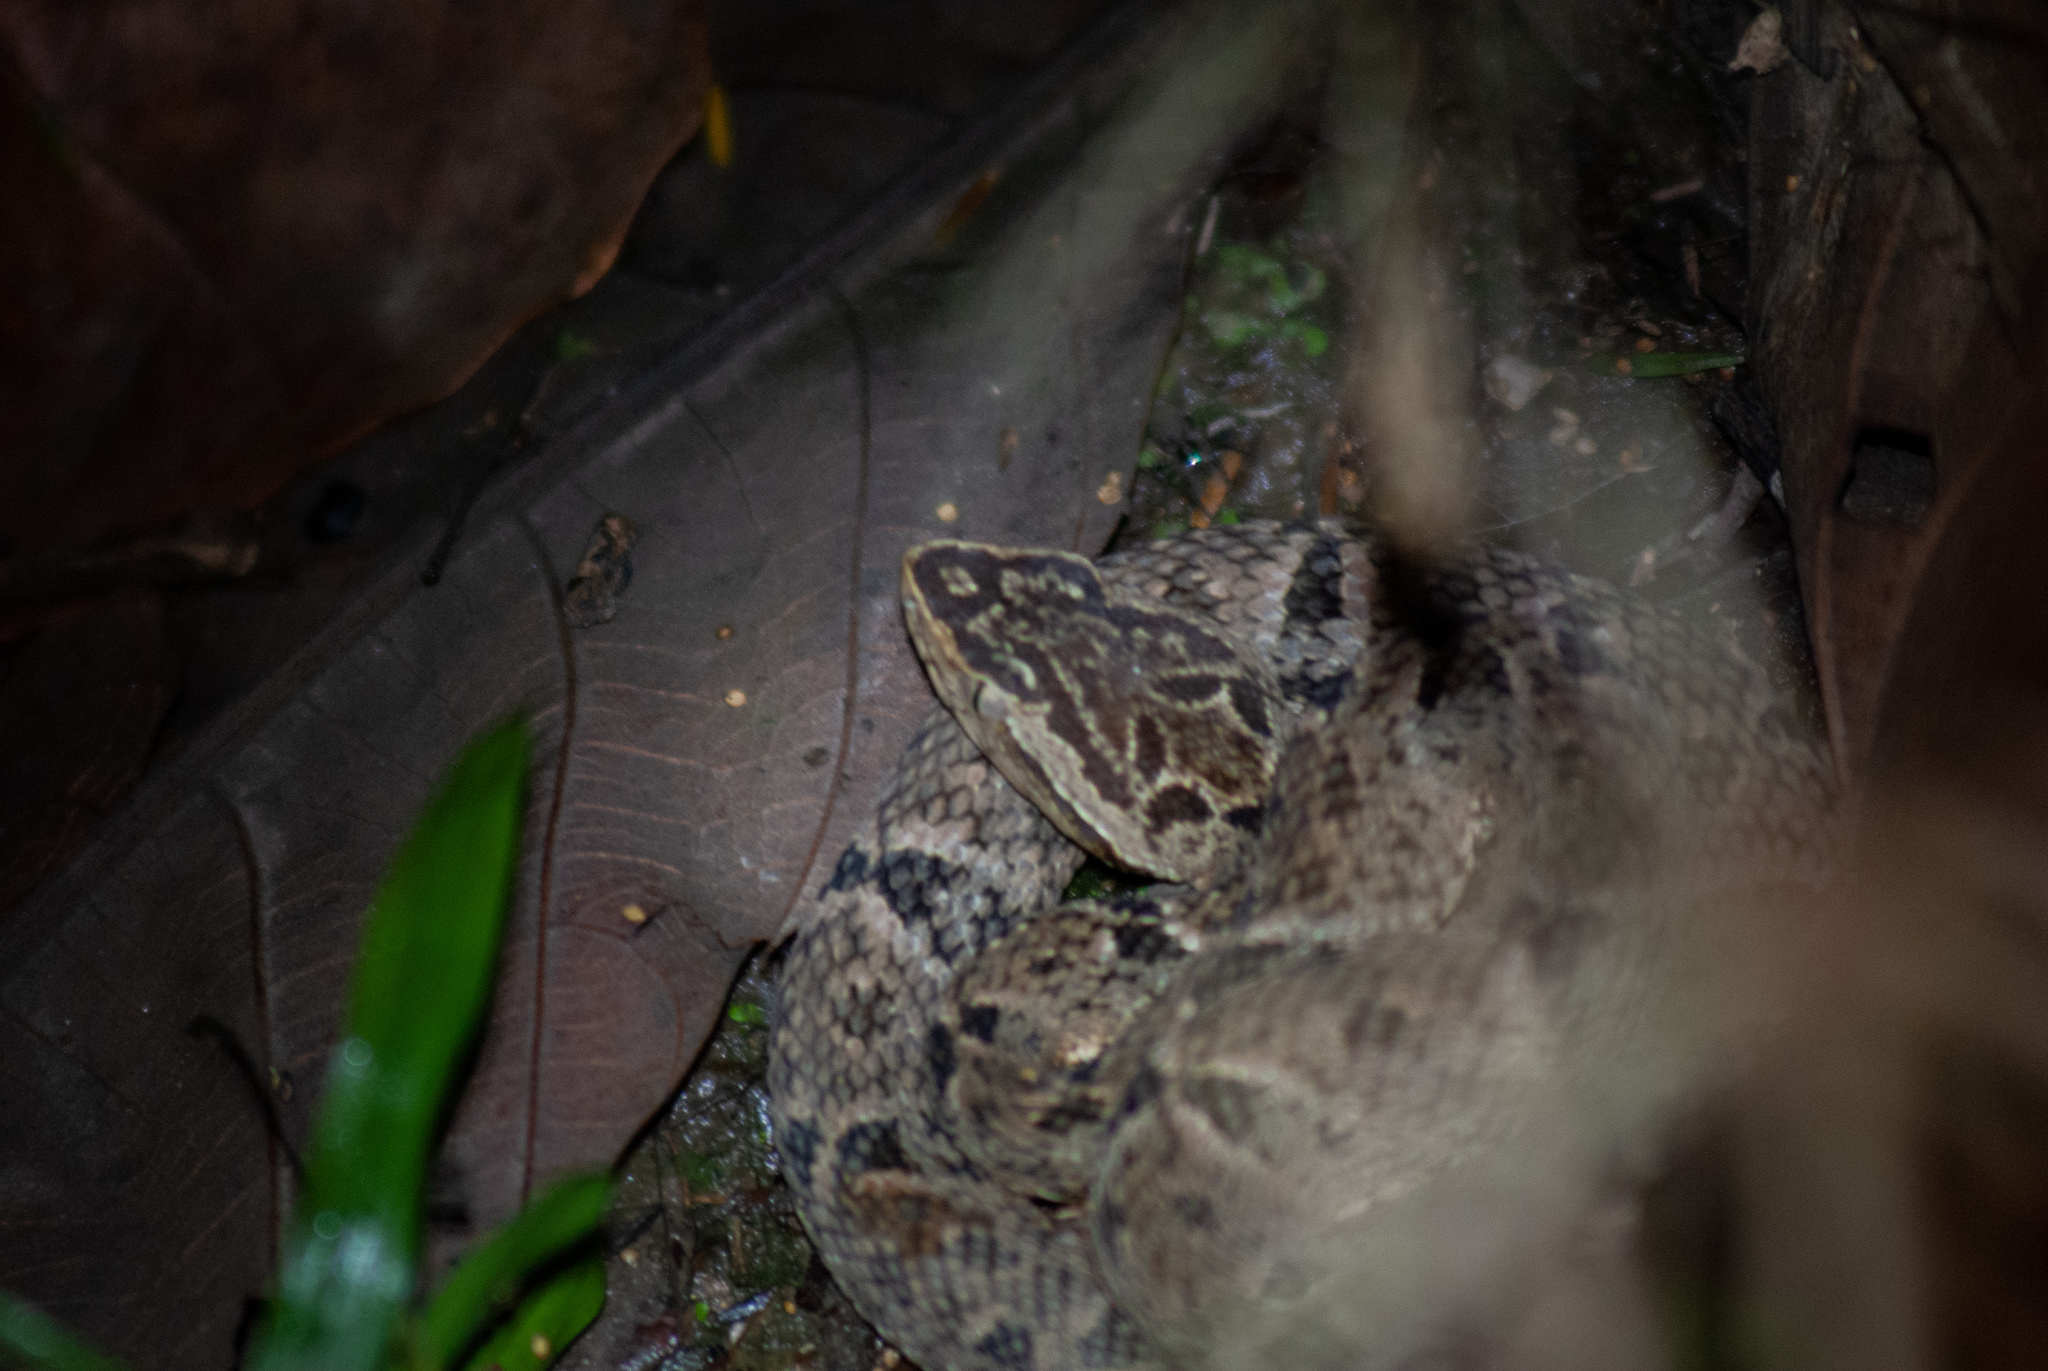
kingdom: Animalia
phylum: Chordata
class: Squamata
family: Viperidae
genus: Bothrops
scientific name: Bothrops asper
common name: Terciopelo
